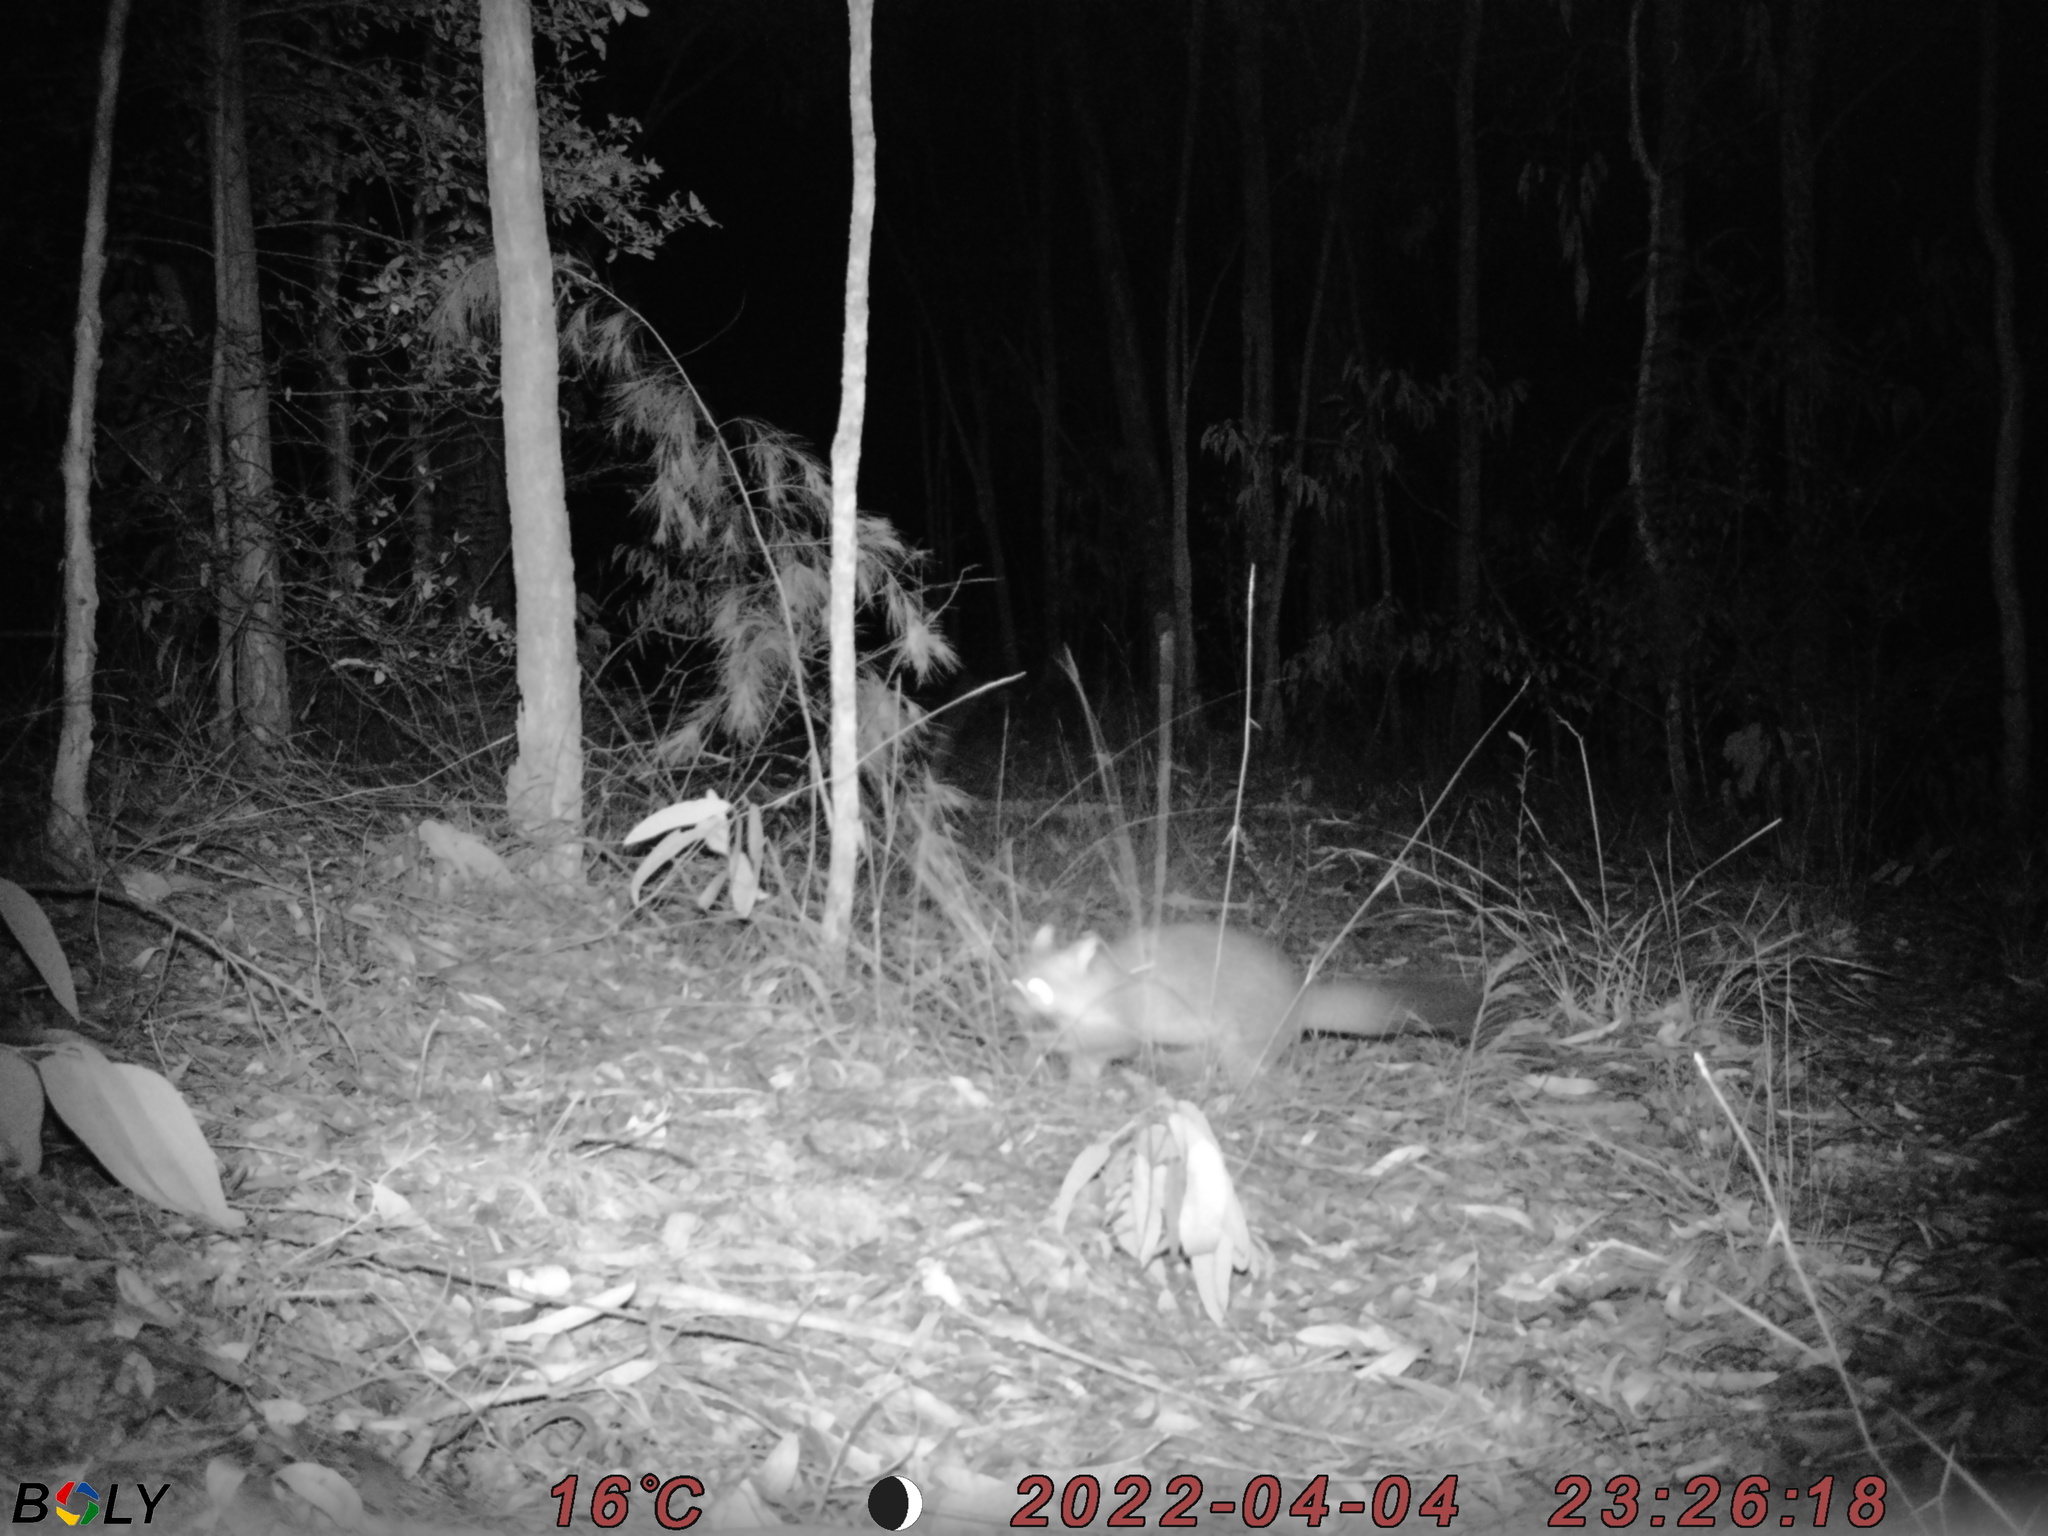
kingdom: Animalia
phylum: Chordata
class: Mammalia
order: Diprotodontia
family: Phalangeridae
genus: Trichosurus
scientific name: Trichosurus vulpecula
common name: Common brushtail
